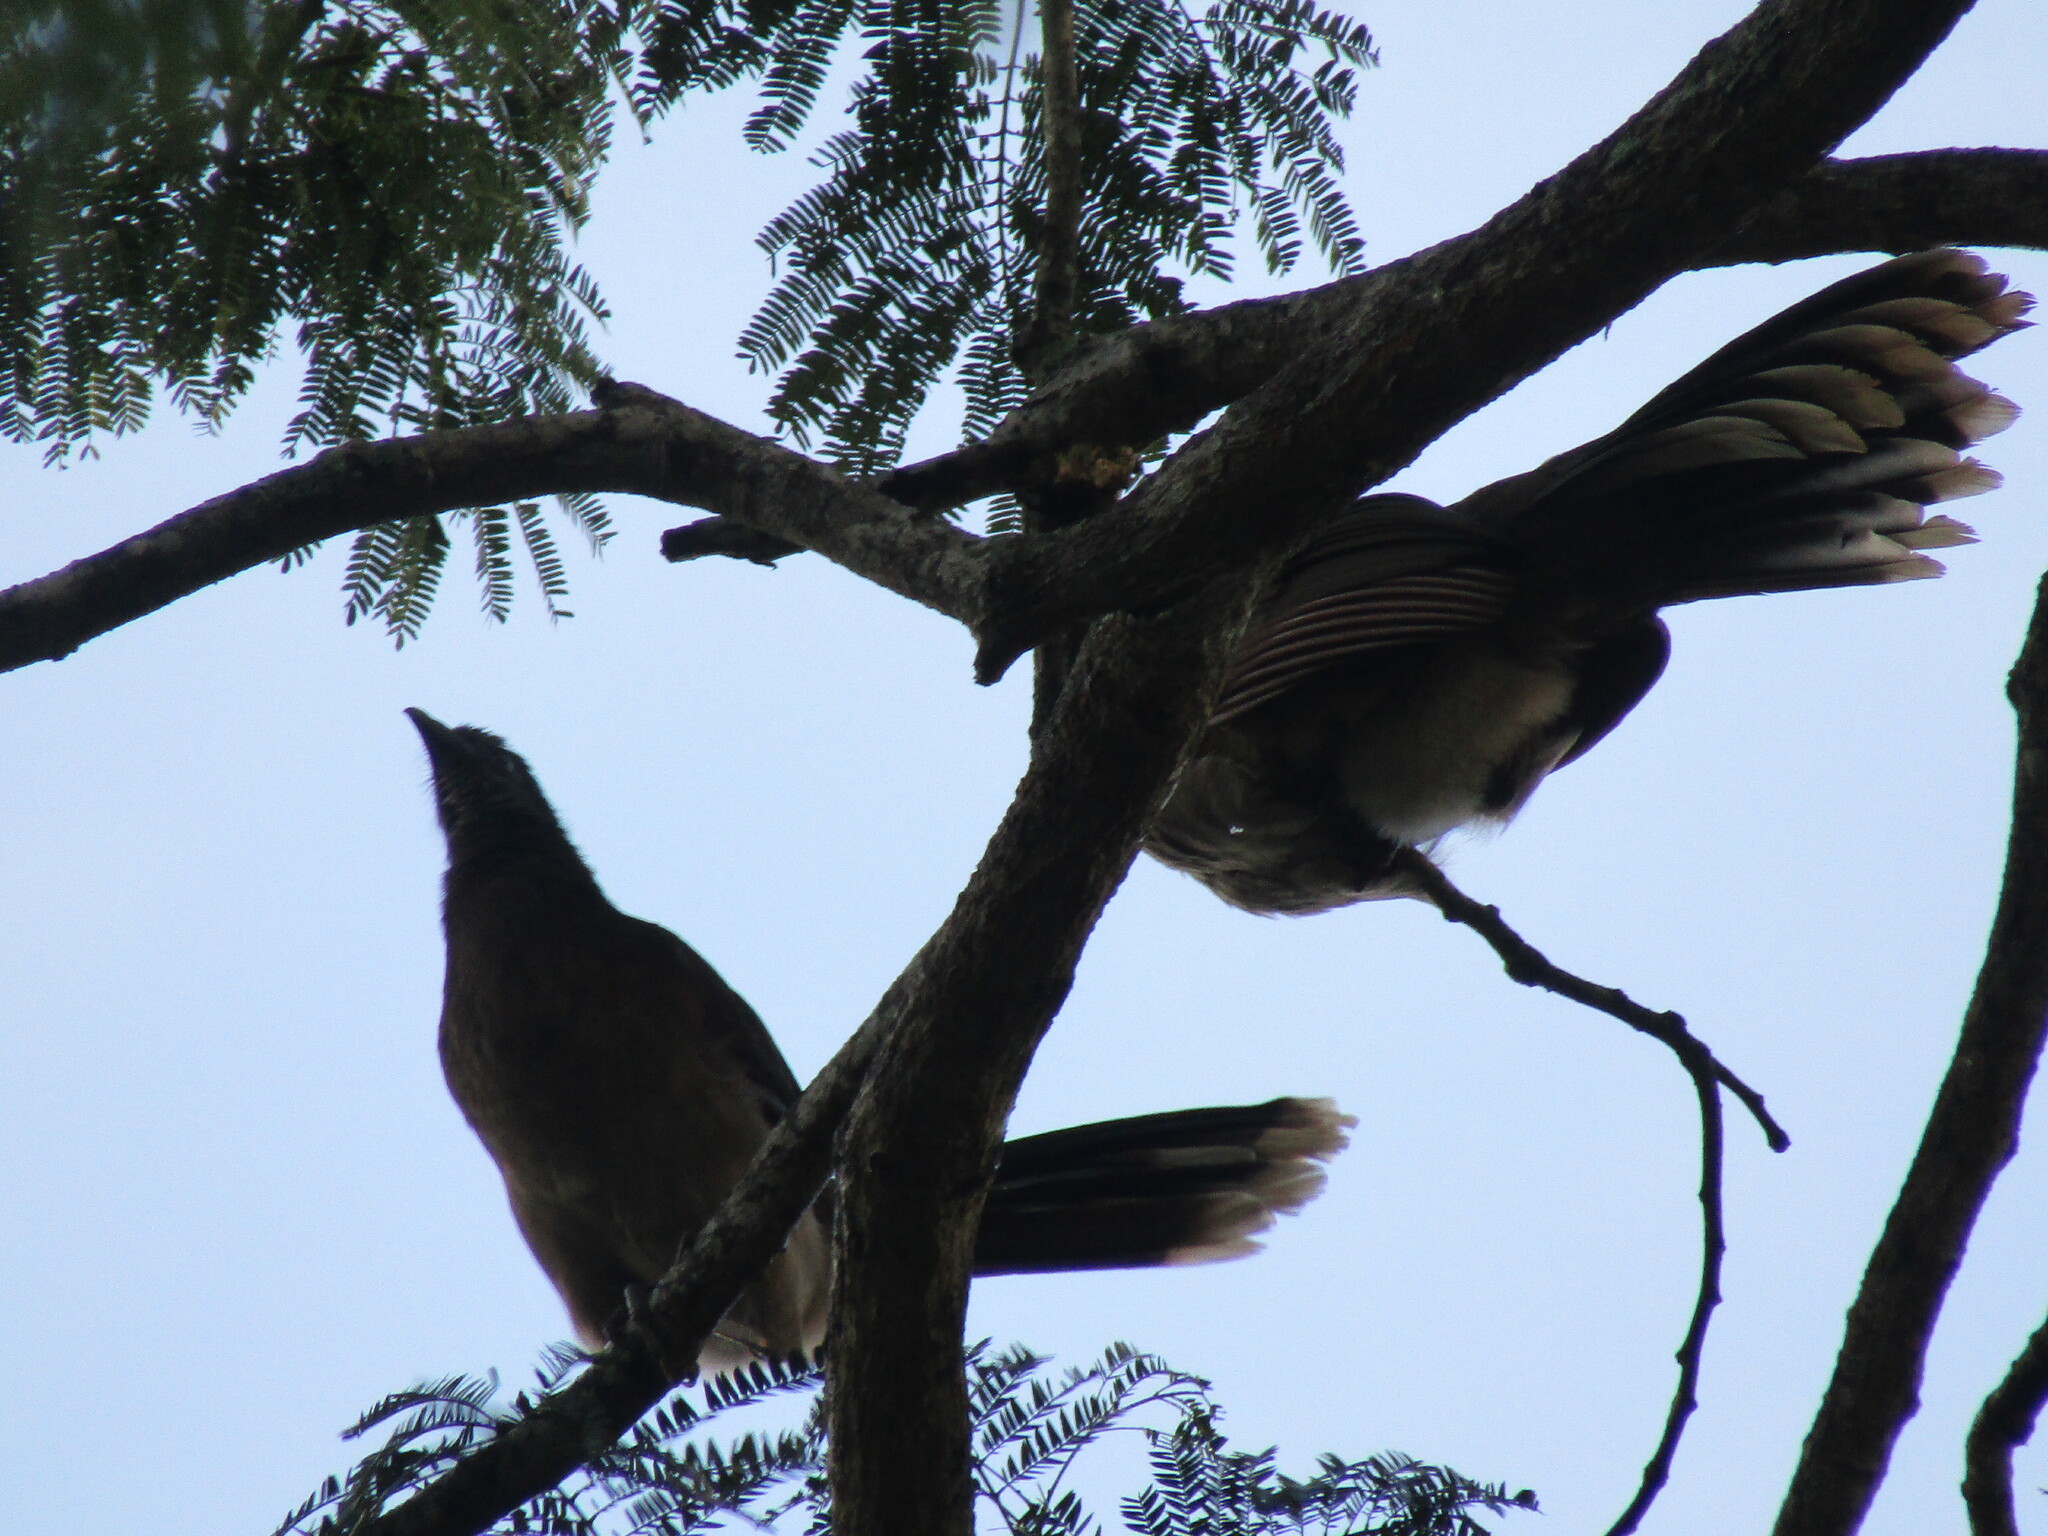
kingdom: Animalia
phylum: Chordata
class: Aves
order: Galliformes
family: Cracidae
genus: Ortalis
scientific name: Ortalis cinereiceps
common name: Grey-headed chachalaca
